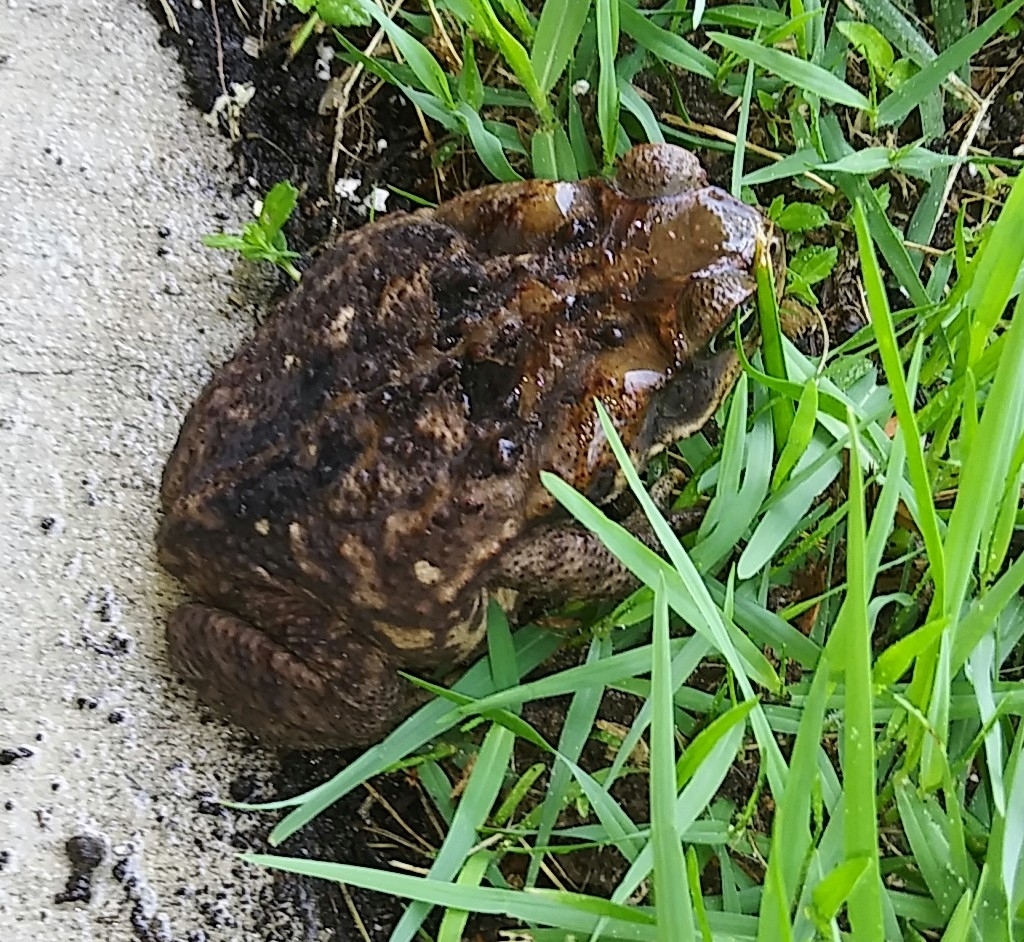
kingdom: Animalia
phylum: Chordata
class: Amphibia
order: Anura
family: Bufonidae
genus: Rhinella
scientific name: Rhinella marina
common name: Cane toad
